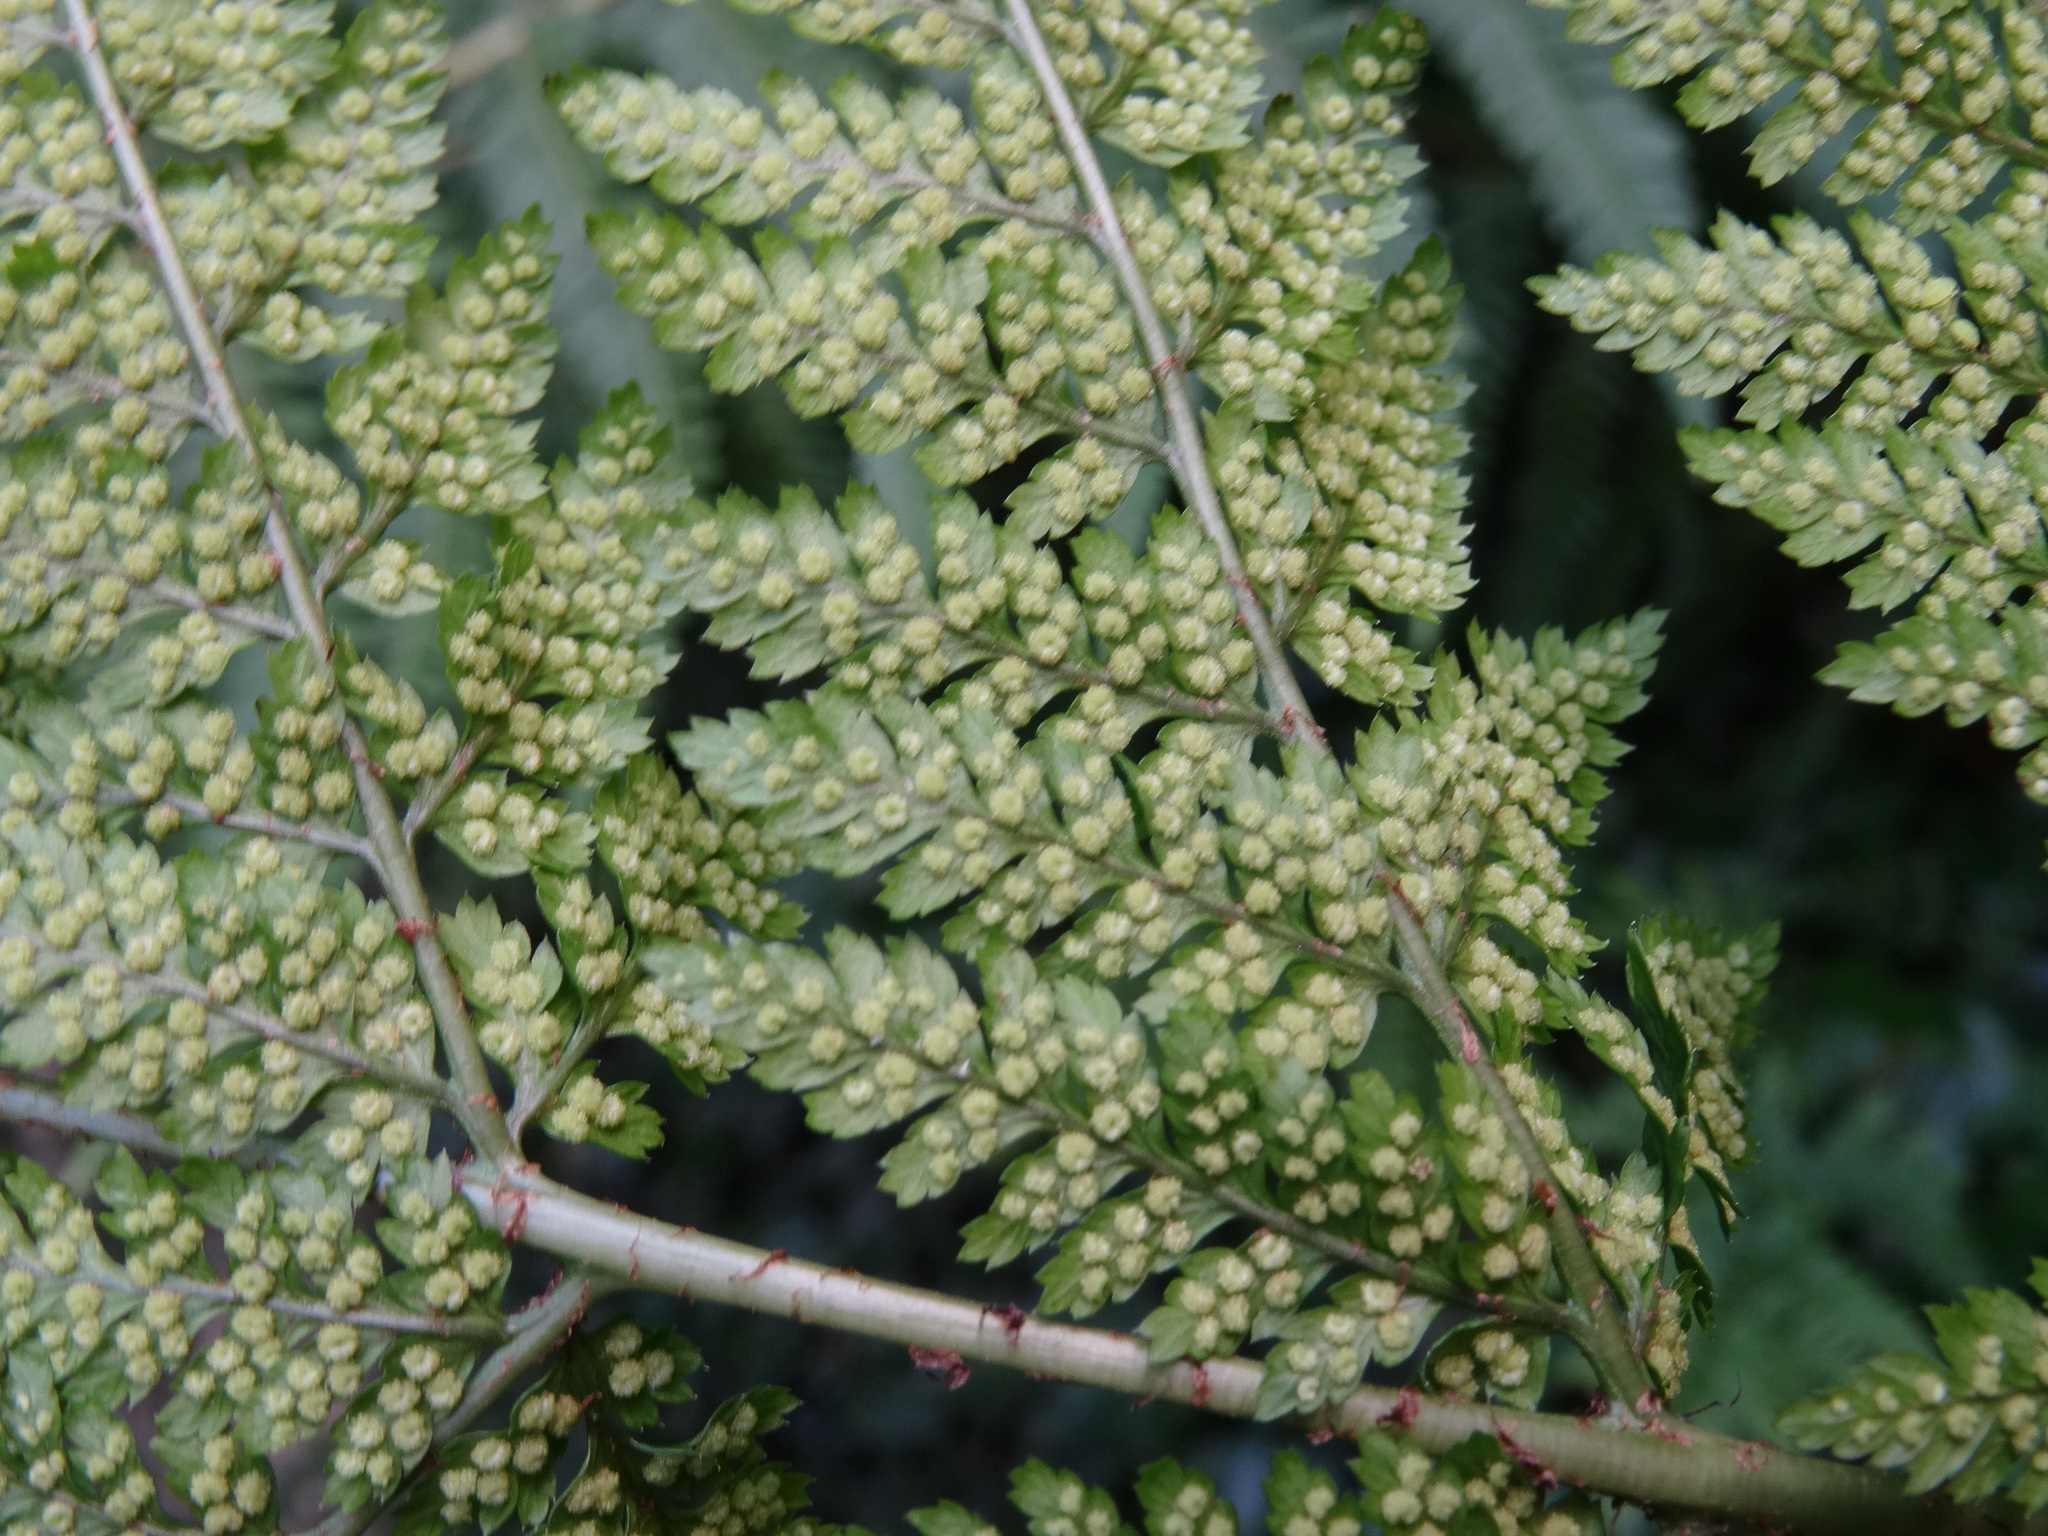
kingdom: Plantae
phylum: Tracheophyta
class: Polypodiopsida
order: Polypodiales
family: Dryopteridaceae
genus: Dryopteris
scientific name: Dryopteris dilatata
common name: Broad buckler-fern
